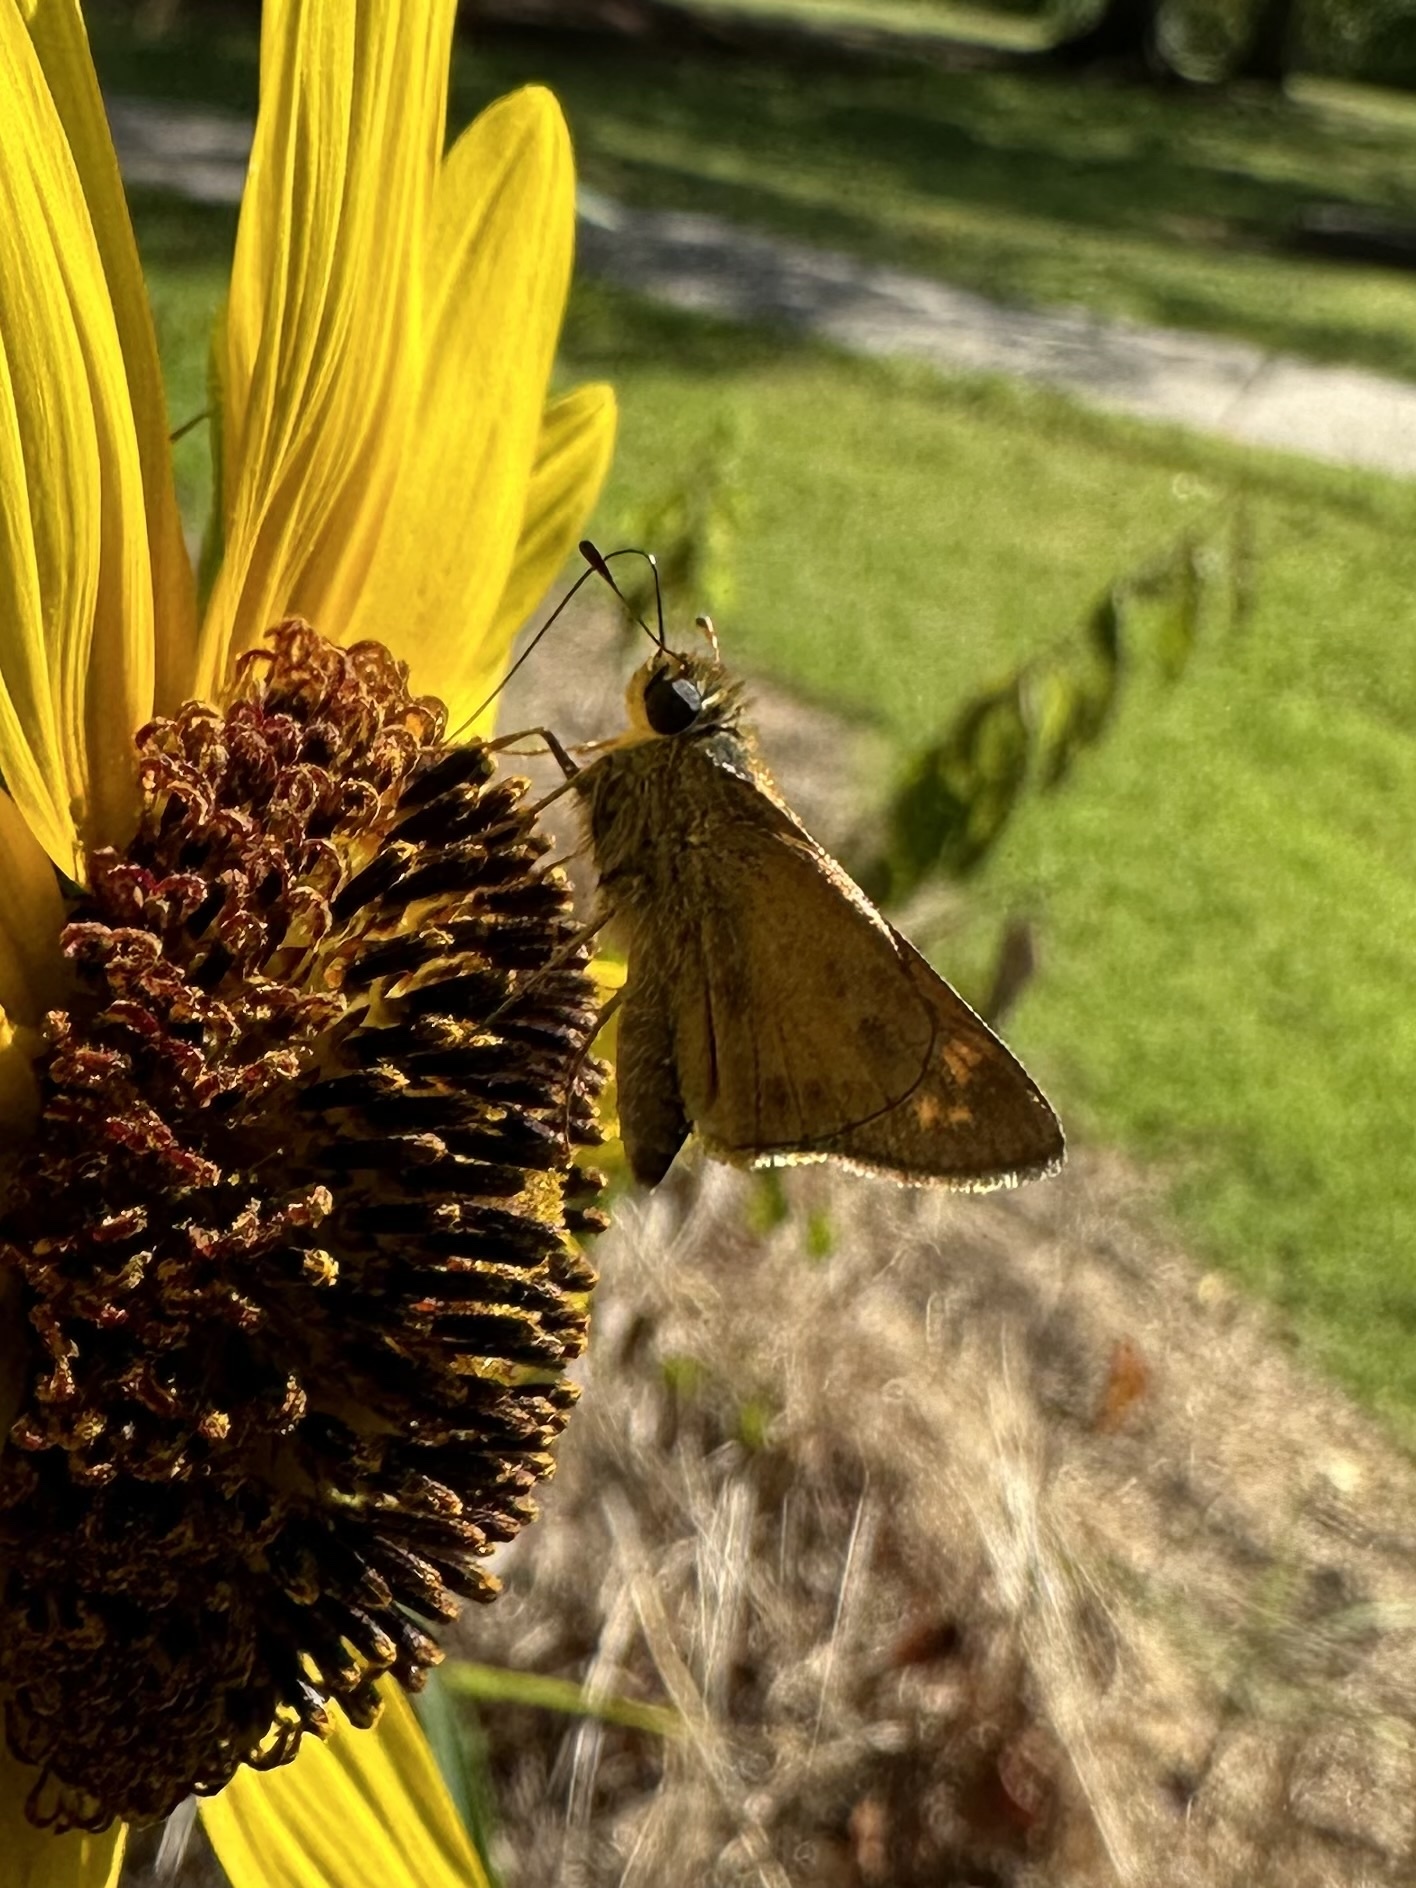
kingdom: Animalia
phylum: Arthropoda
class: Insecta
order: Lepidoptera
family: Hesperiidae
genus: Atalopedes
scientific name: Atalopedes
